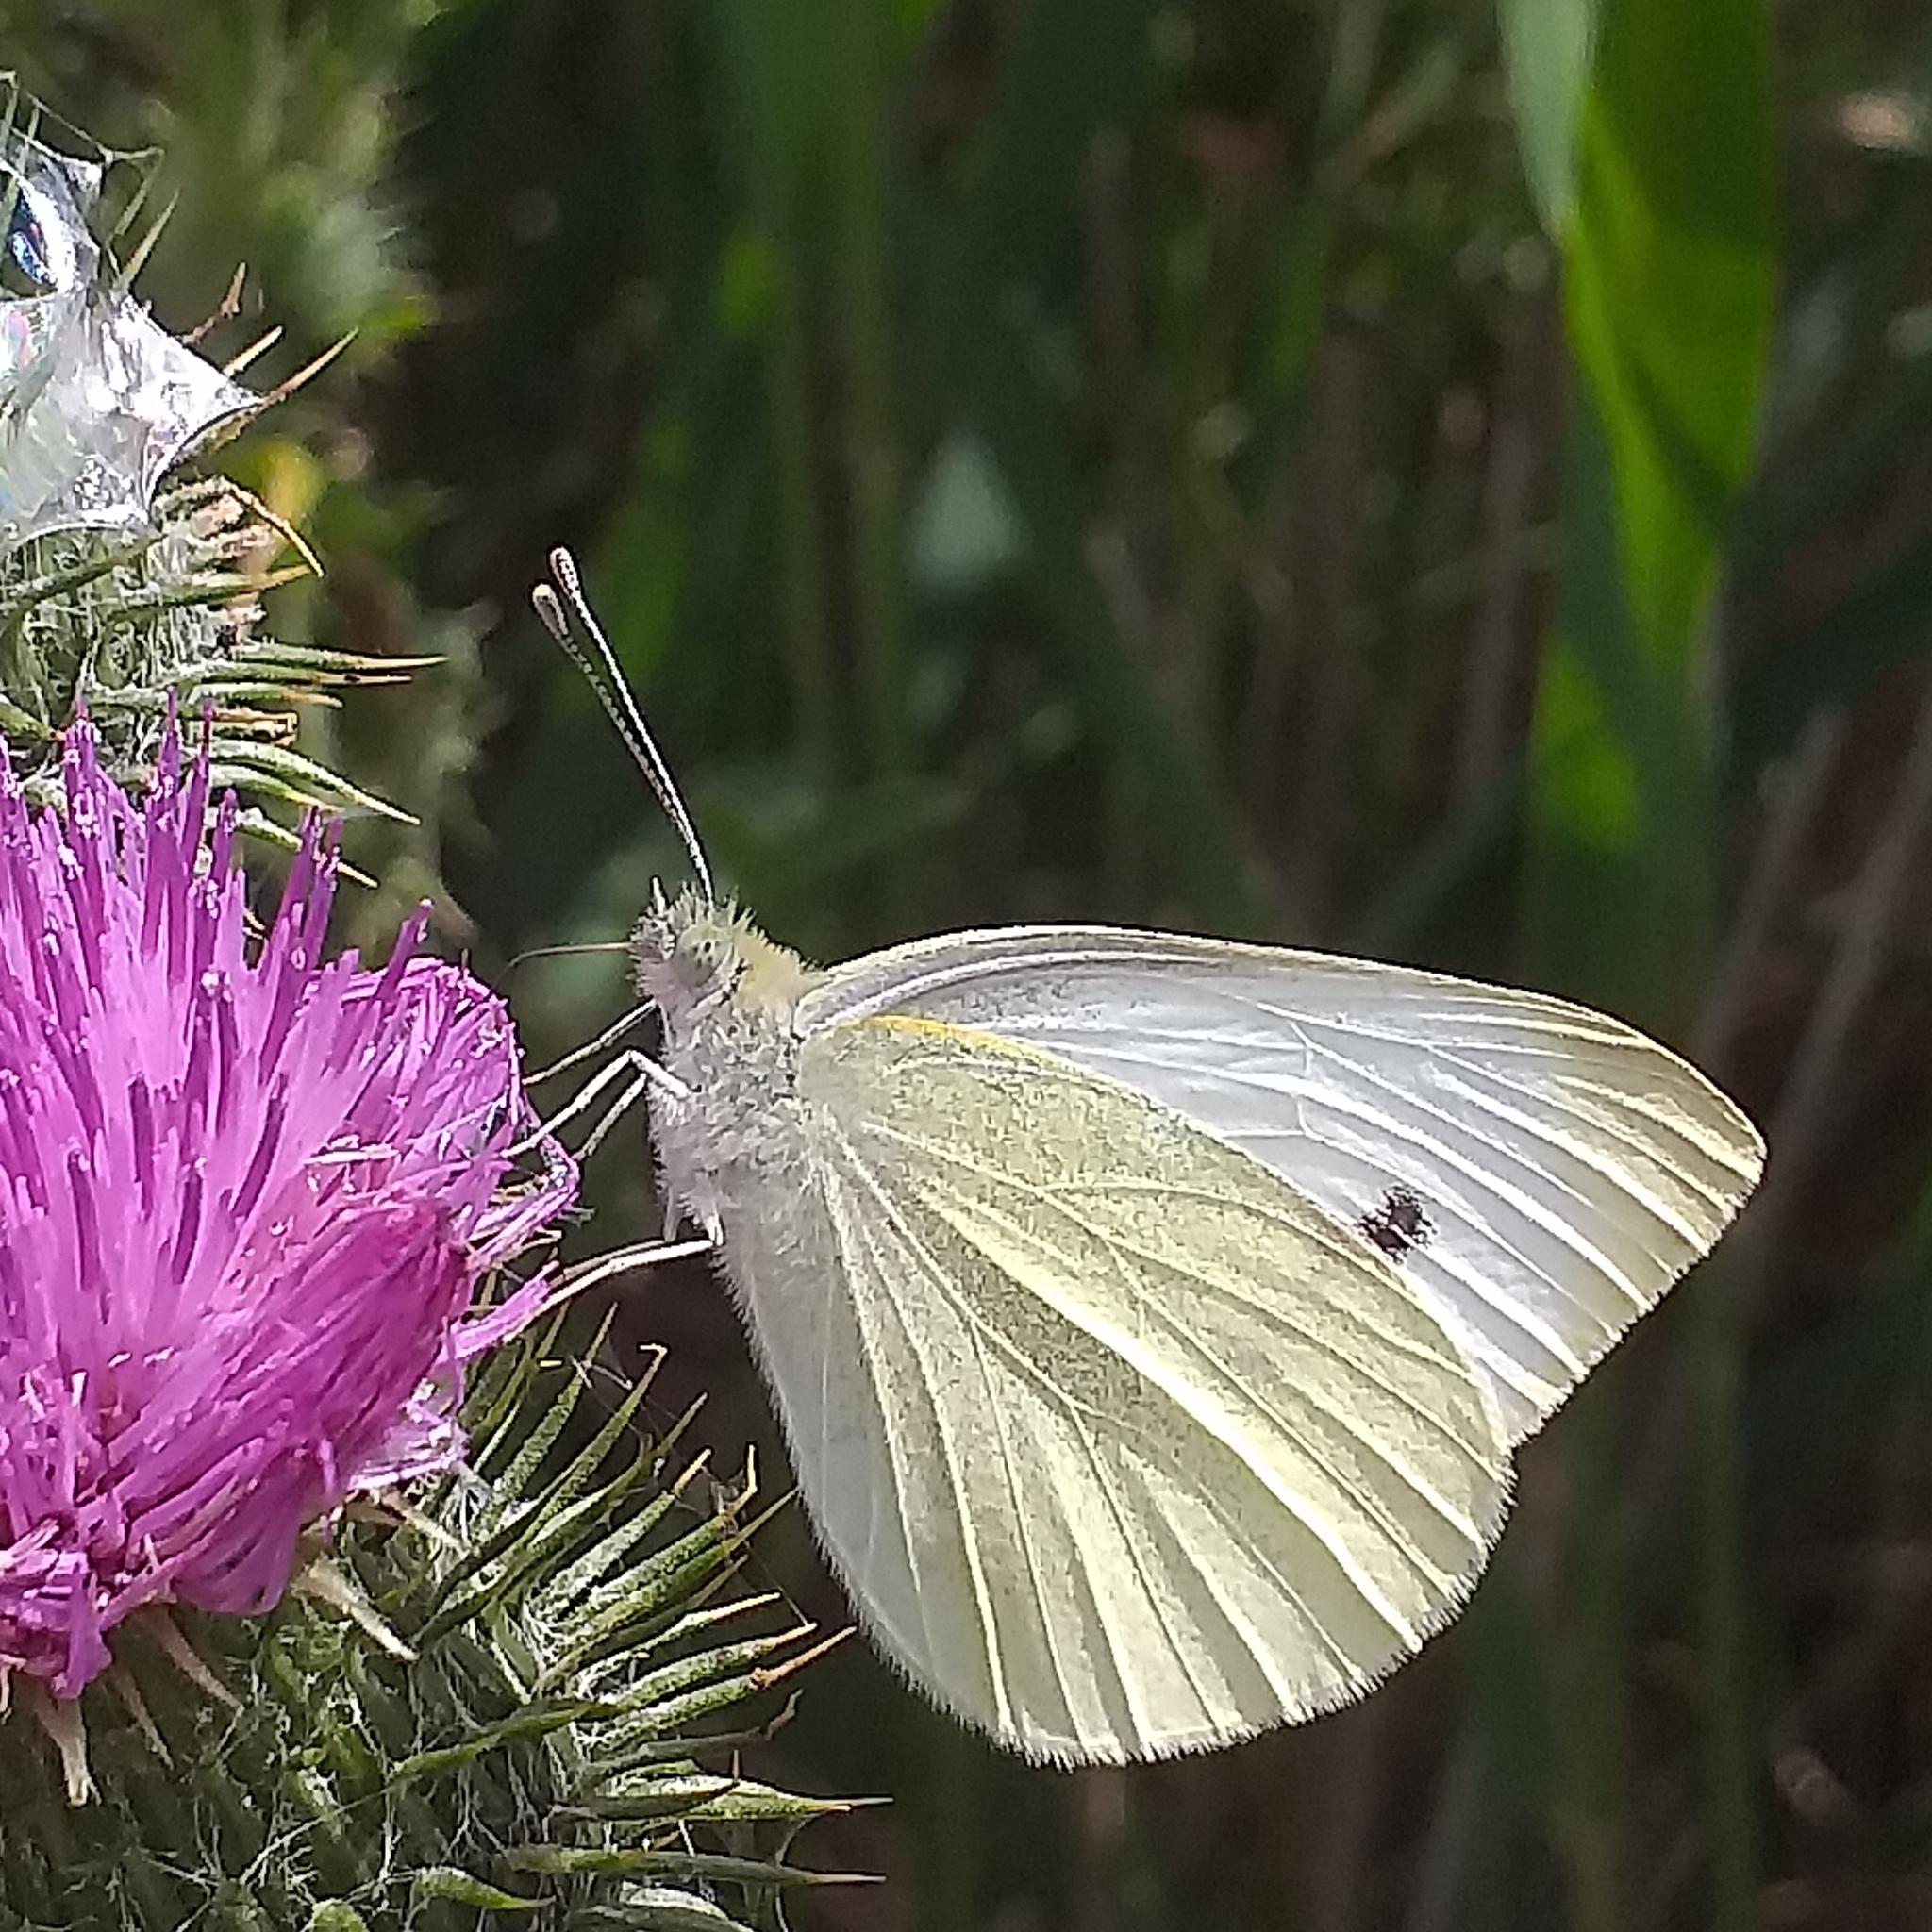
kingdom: Animalia
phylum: Arthropoda
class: Insecta
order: Lepidoptera
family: Pieridae
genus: Pieris
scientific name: Pieris rapae
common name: Small white
